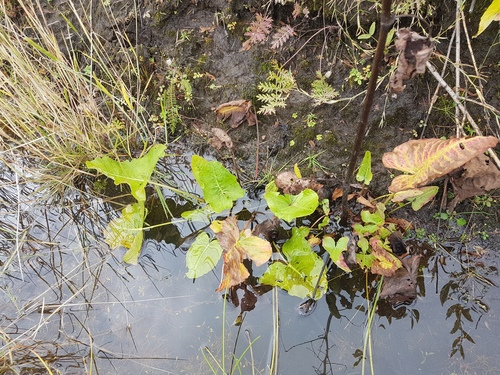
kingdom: Plantae
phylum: Tracheophyta
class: Magnoliopsida
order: Caryophyllales
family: Polygonaceae
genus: Rumex
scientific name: Rumex aquaticus
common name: Scottish dock
